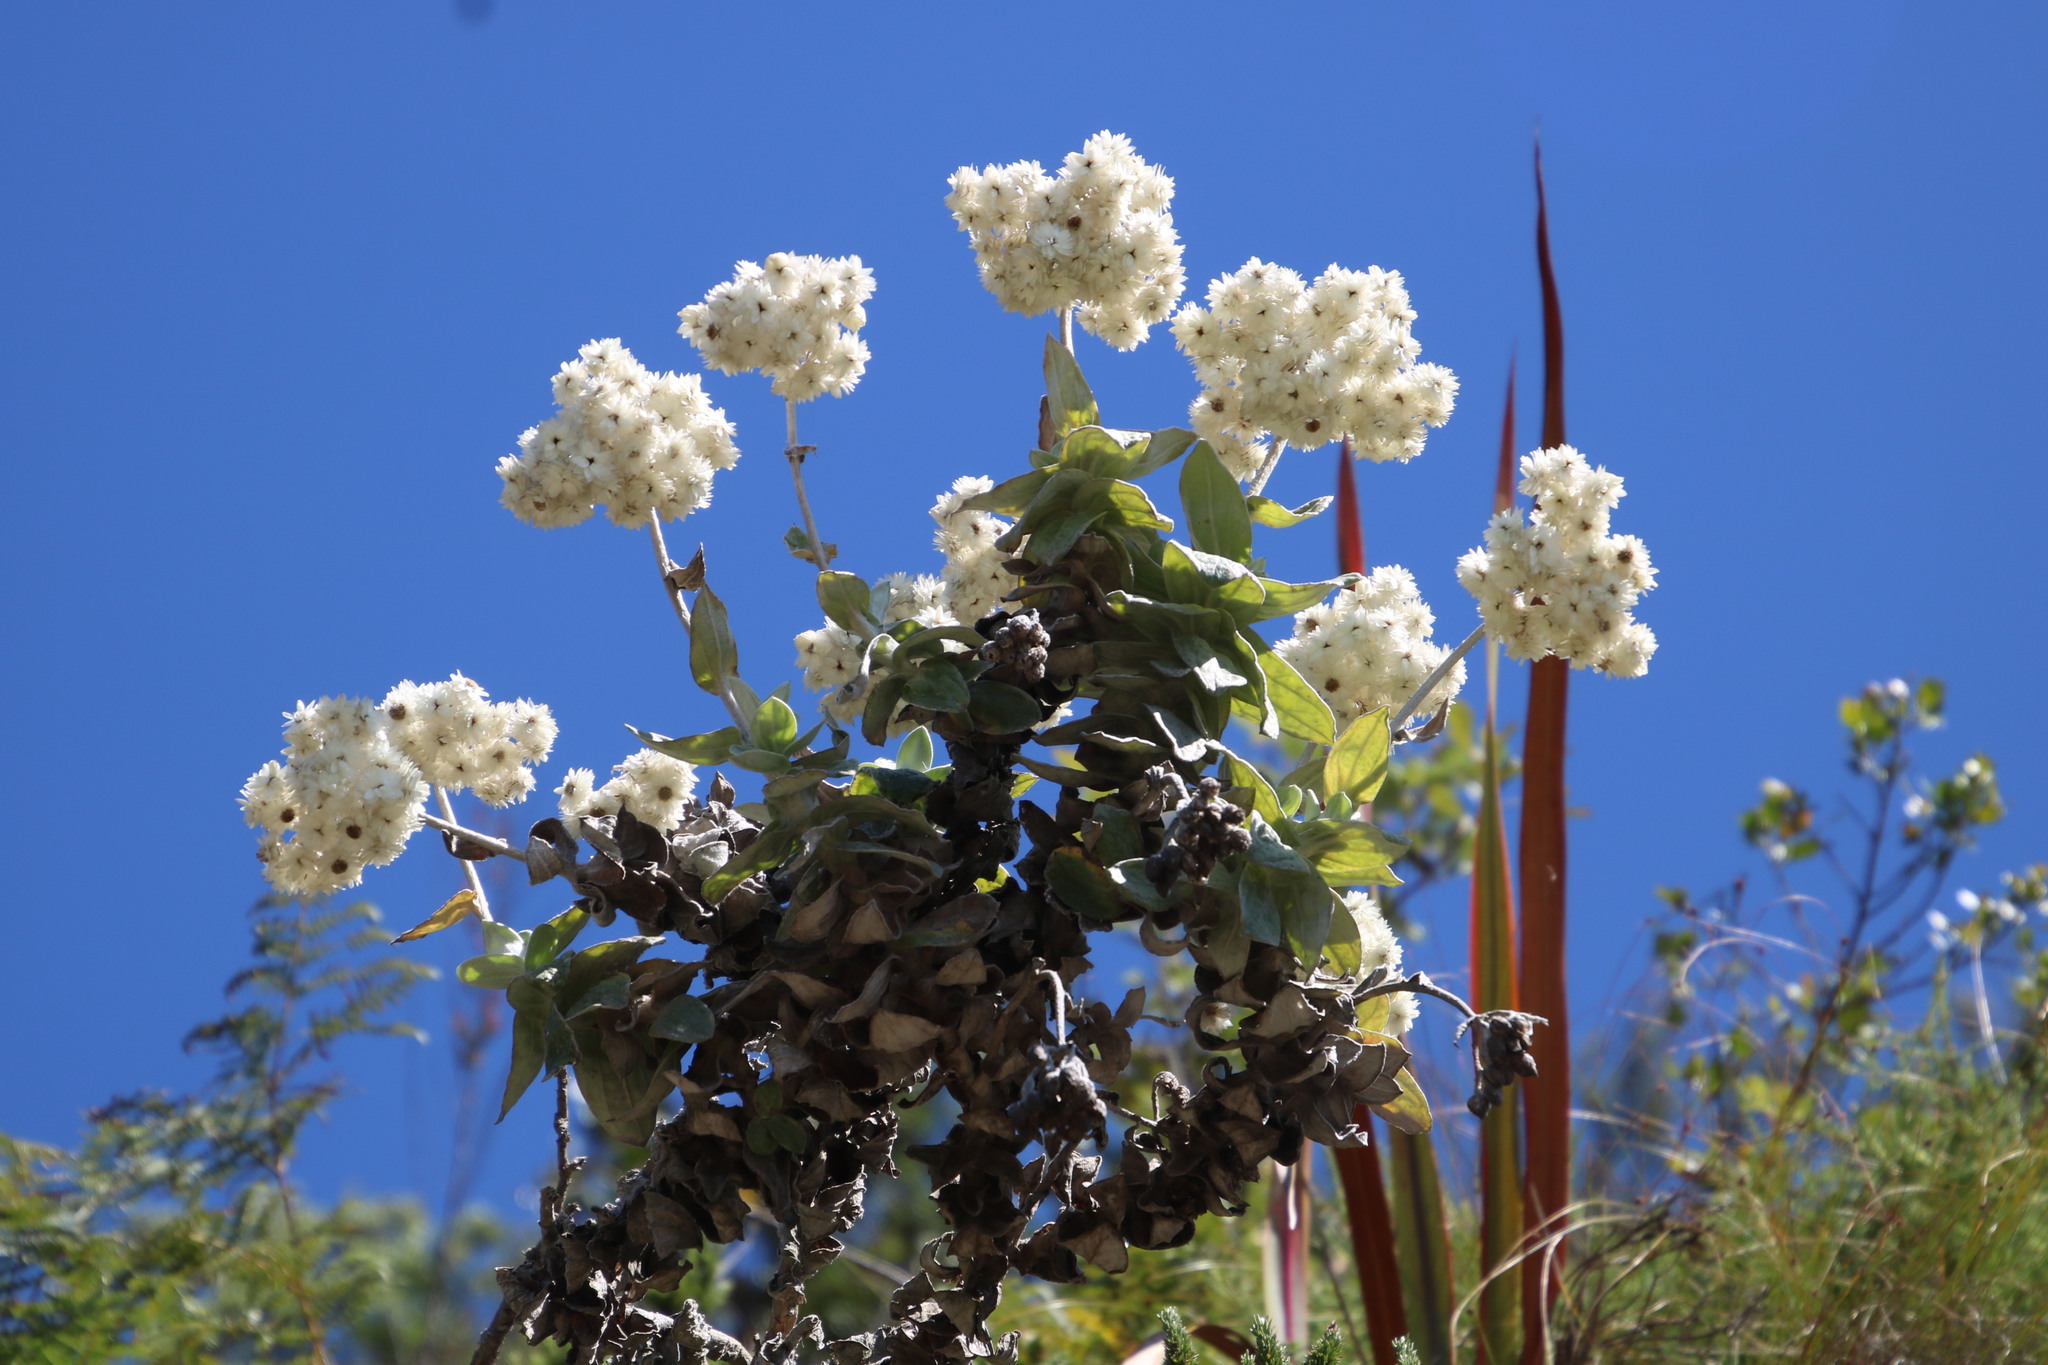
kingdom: Plantae
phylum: Tracheophyta
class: Magnoliopsida
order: Asterales
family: Asteraceae
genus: Helichrysum
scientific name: Helichrysum fruticans
